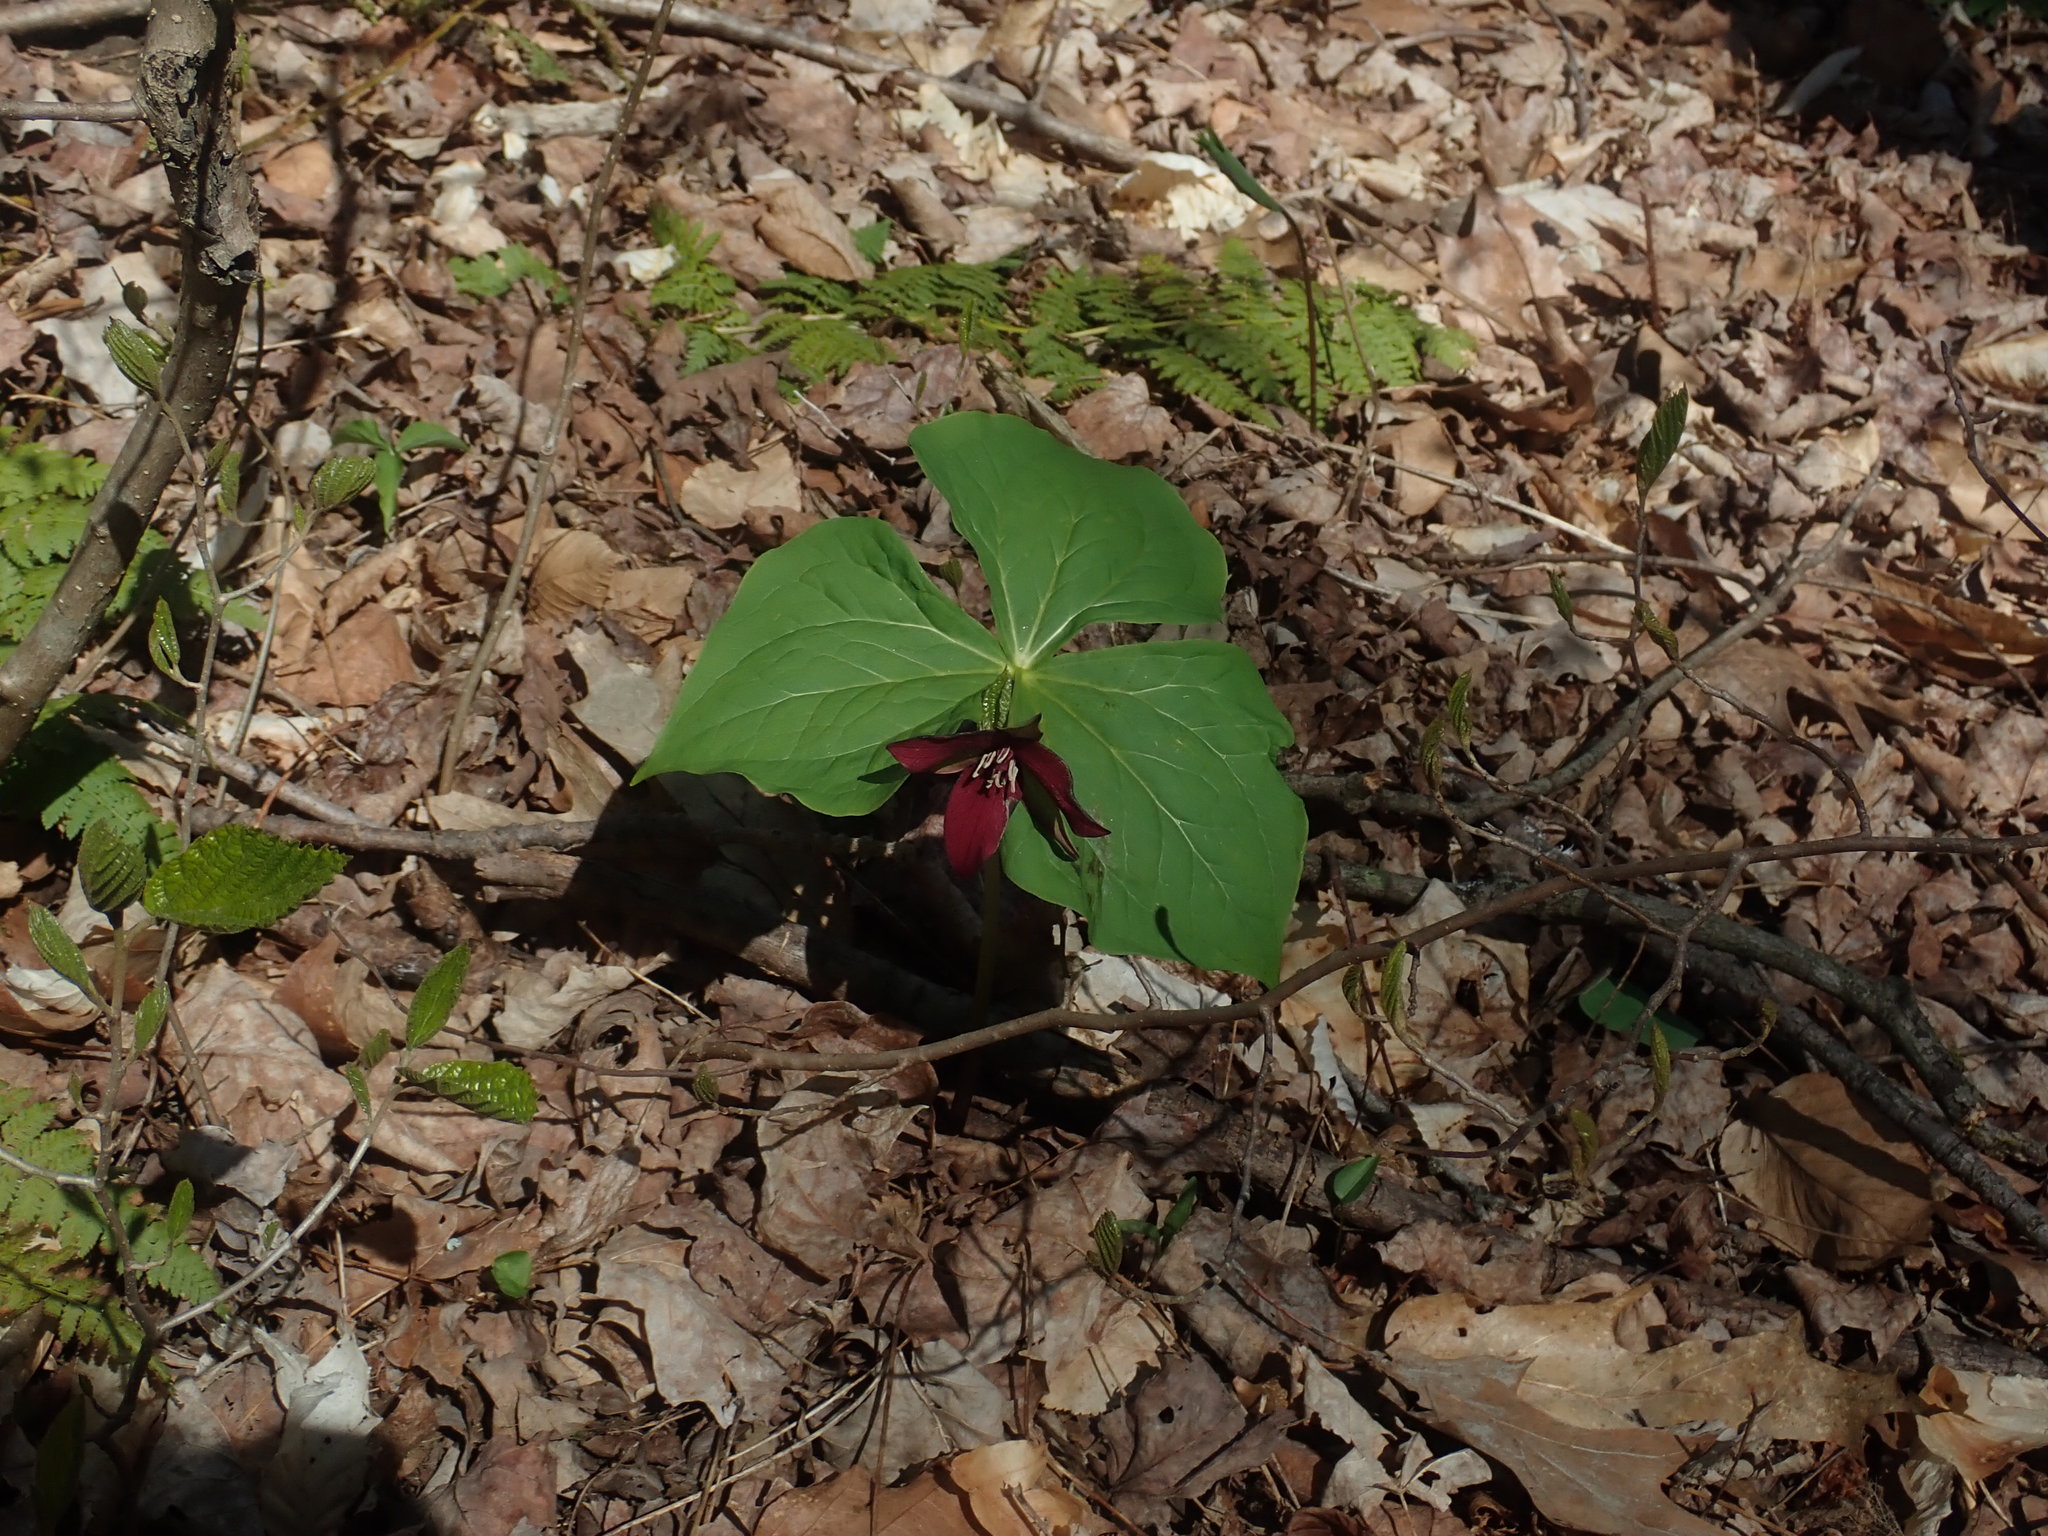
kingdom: Plantae
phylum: Tracheophyta
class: Liliopsida
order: Liliales
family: Melanthiaceae
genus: Trillium
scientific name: Trillium erectum
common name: Purple trillium
